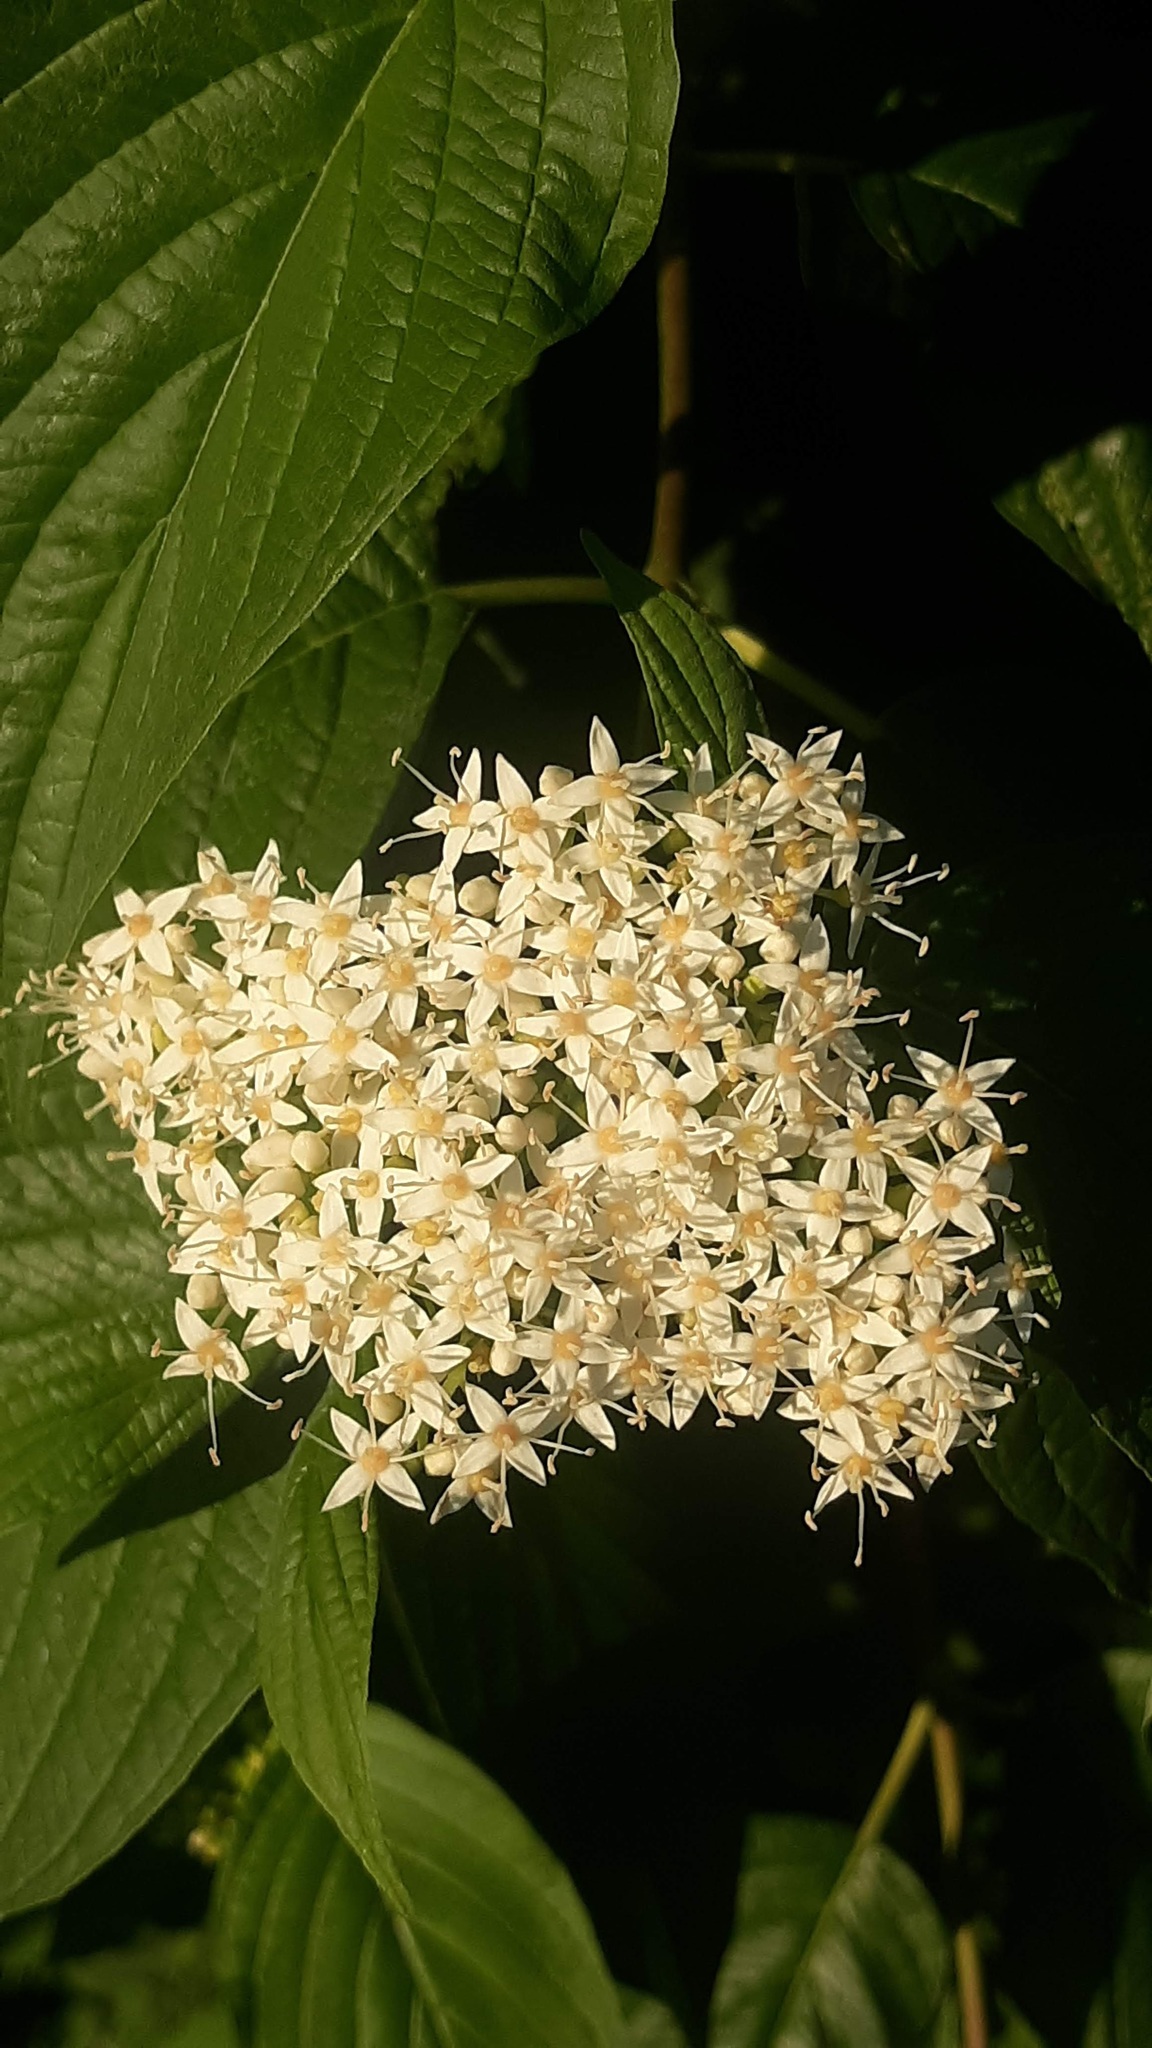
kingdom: Plantae
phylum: Tracheophyta
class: Magnoliopsida
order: Cornales
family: Cornaceae
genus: Cornus
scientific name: Cornus sericea
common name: Red-osier dogwood
